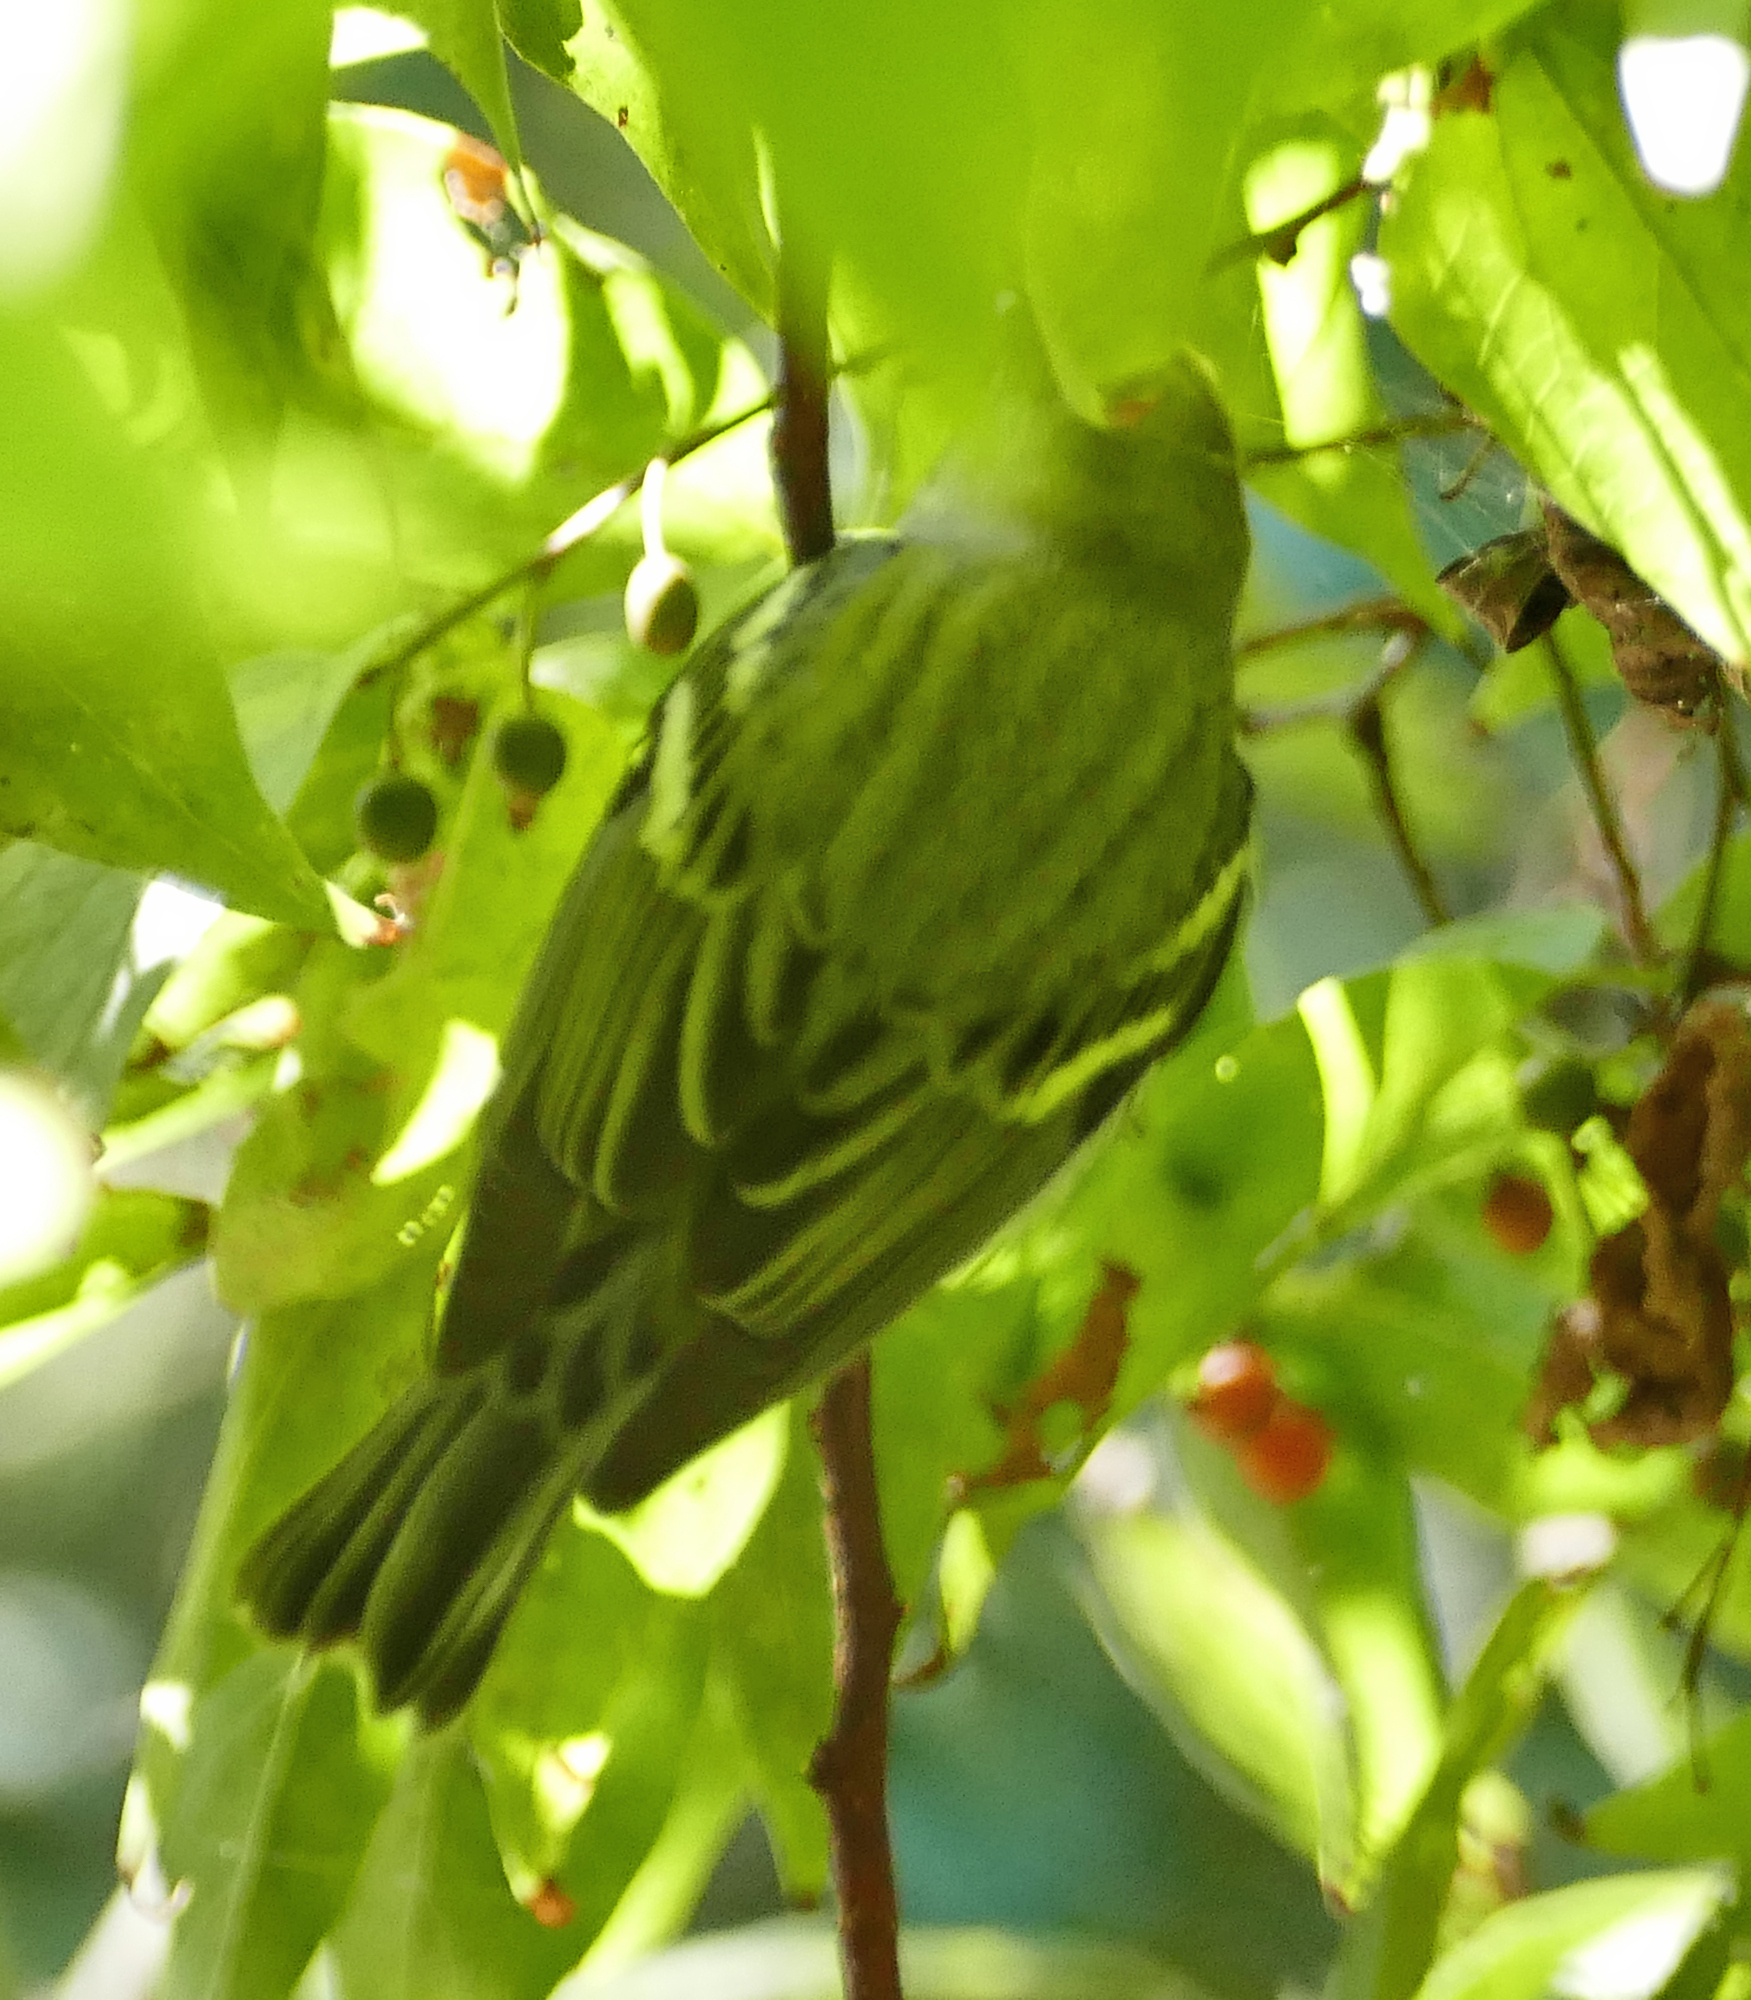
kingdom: Animalia
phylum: Chordata
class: Aves
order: Passeriformes
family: Parulidae
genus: Setophaga
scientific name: Setophaga pensylvanica
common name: Chestnut-sided warbler
